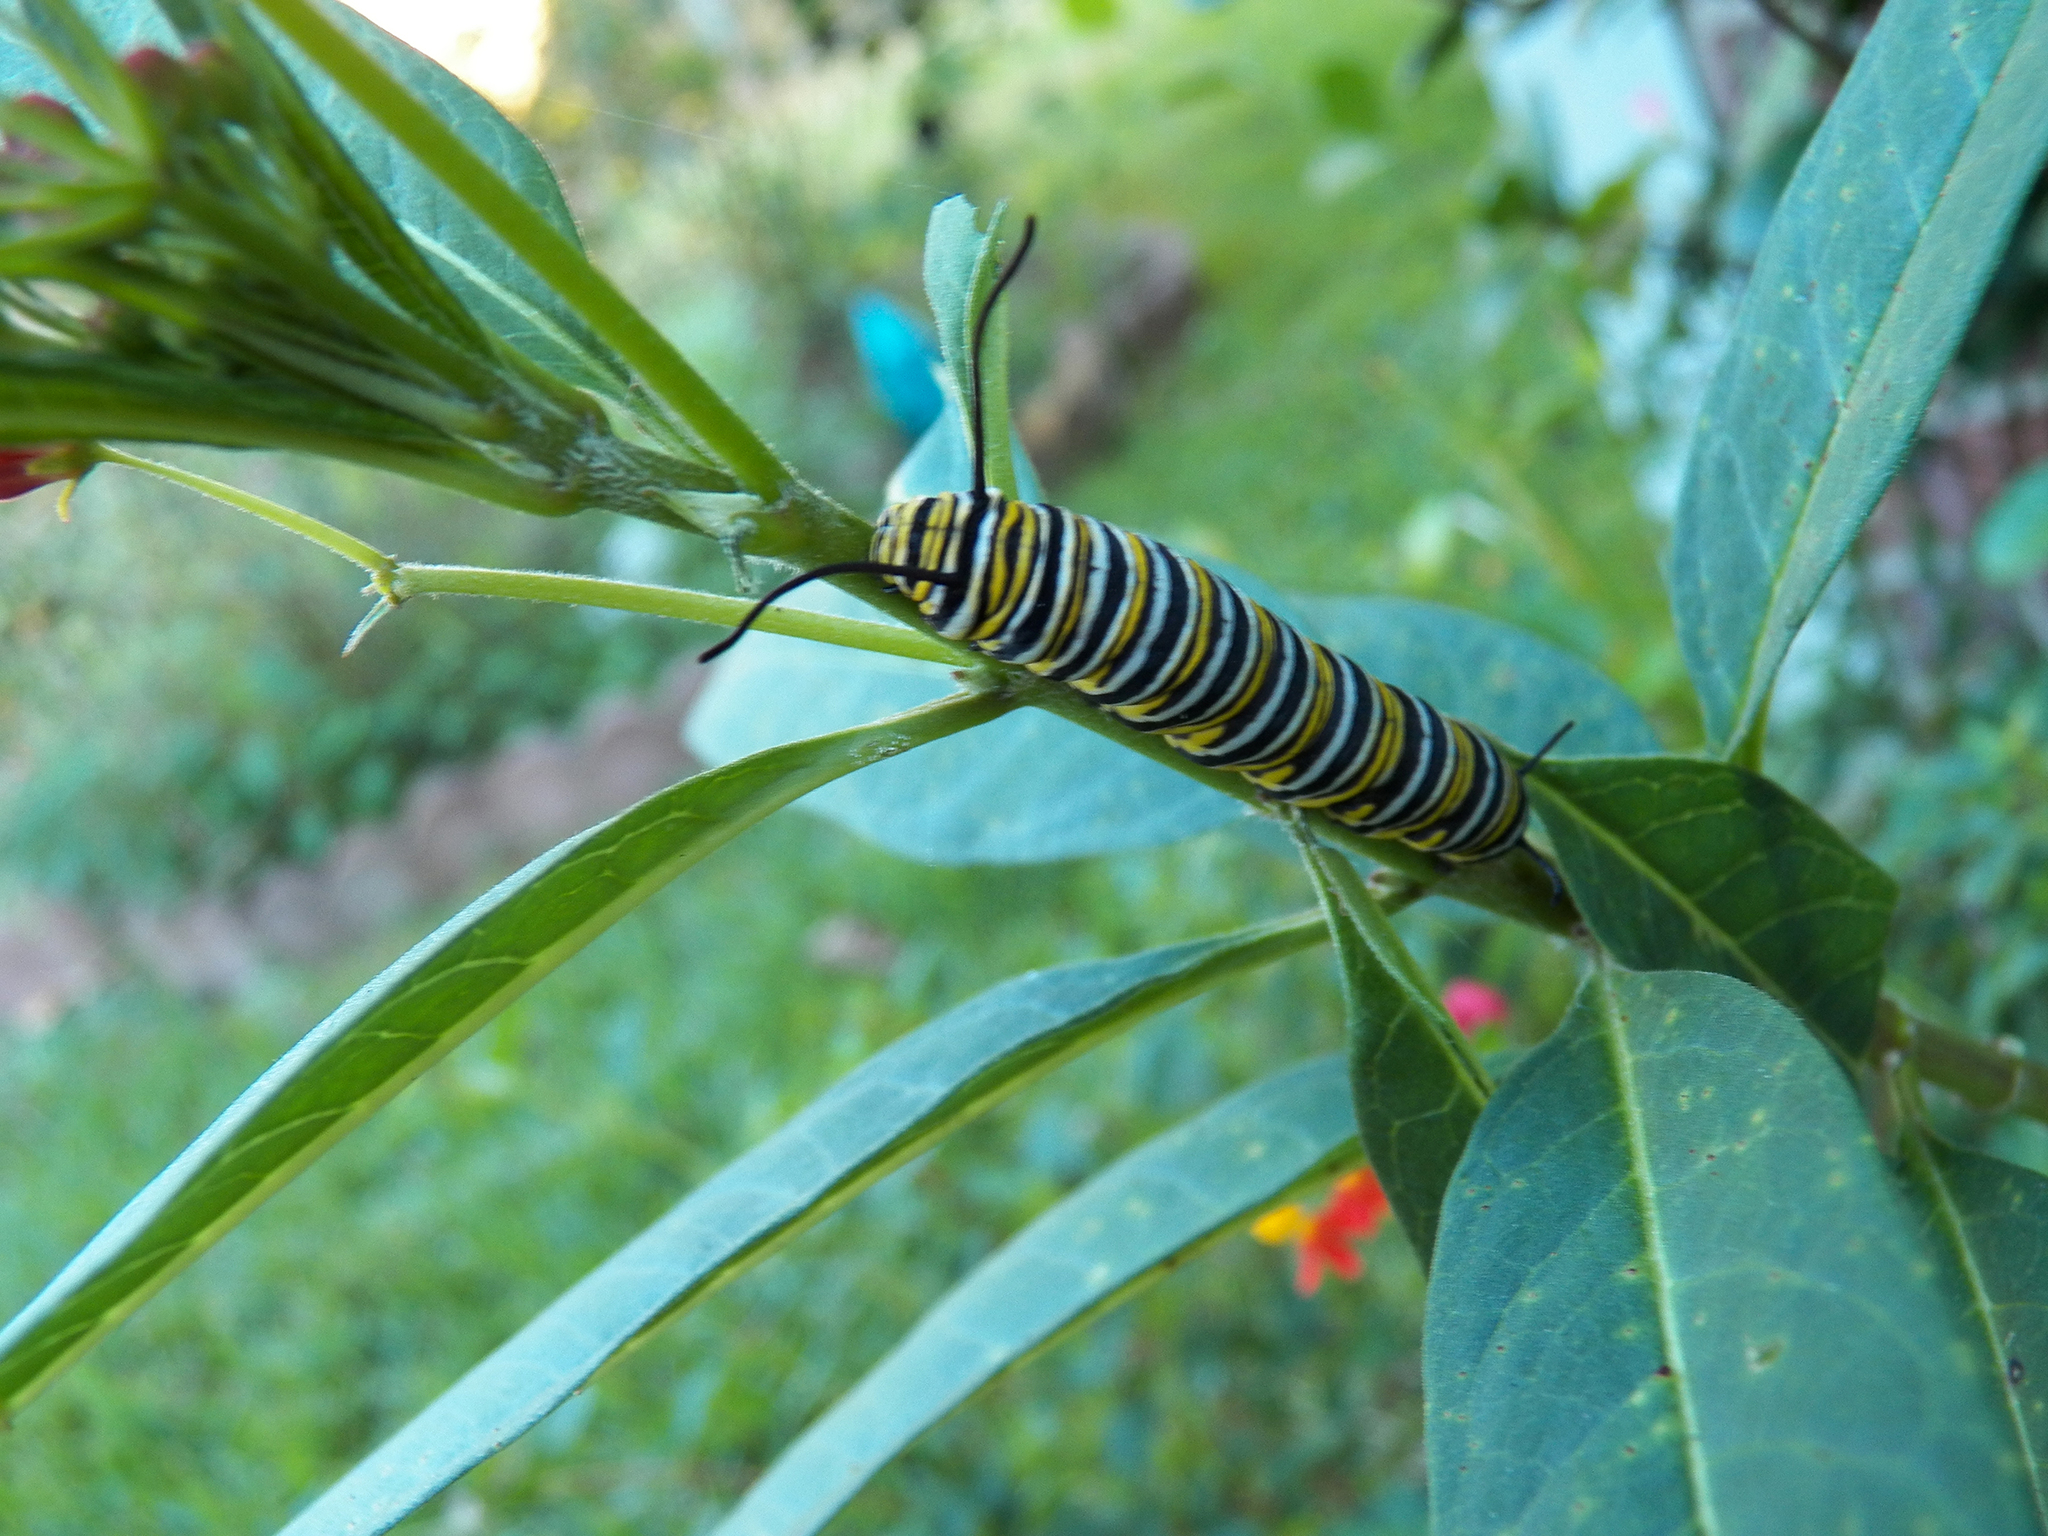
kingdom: Animalia
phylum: Arthropoda
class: Insecta
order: Lepidoptera
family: Nymphalidae
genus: Danaus
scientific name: Danaus plexippus
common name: Monarch
